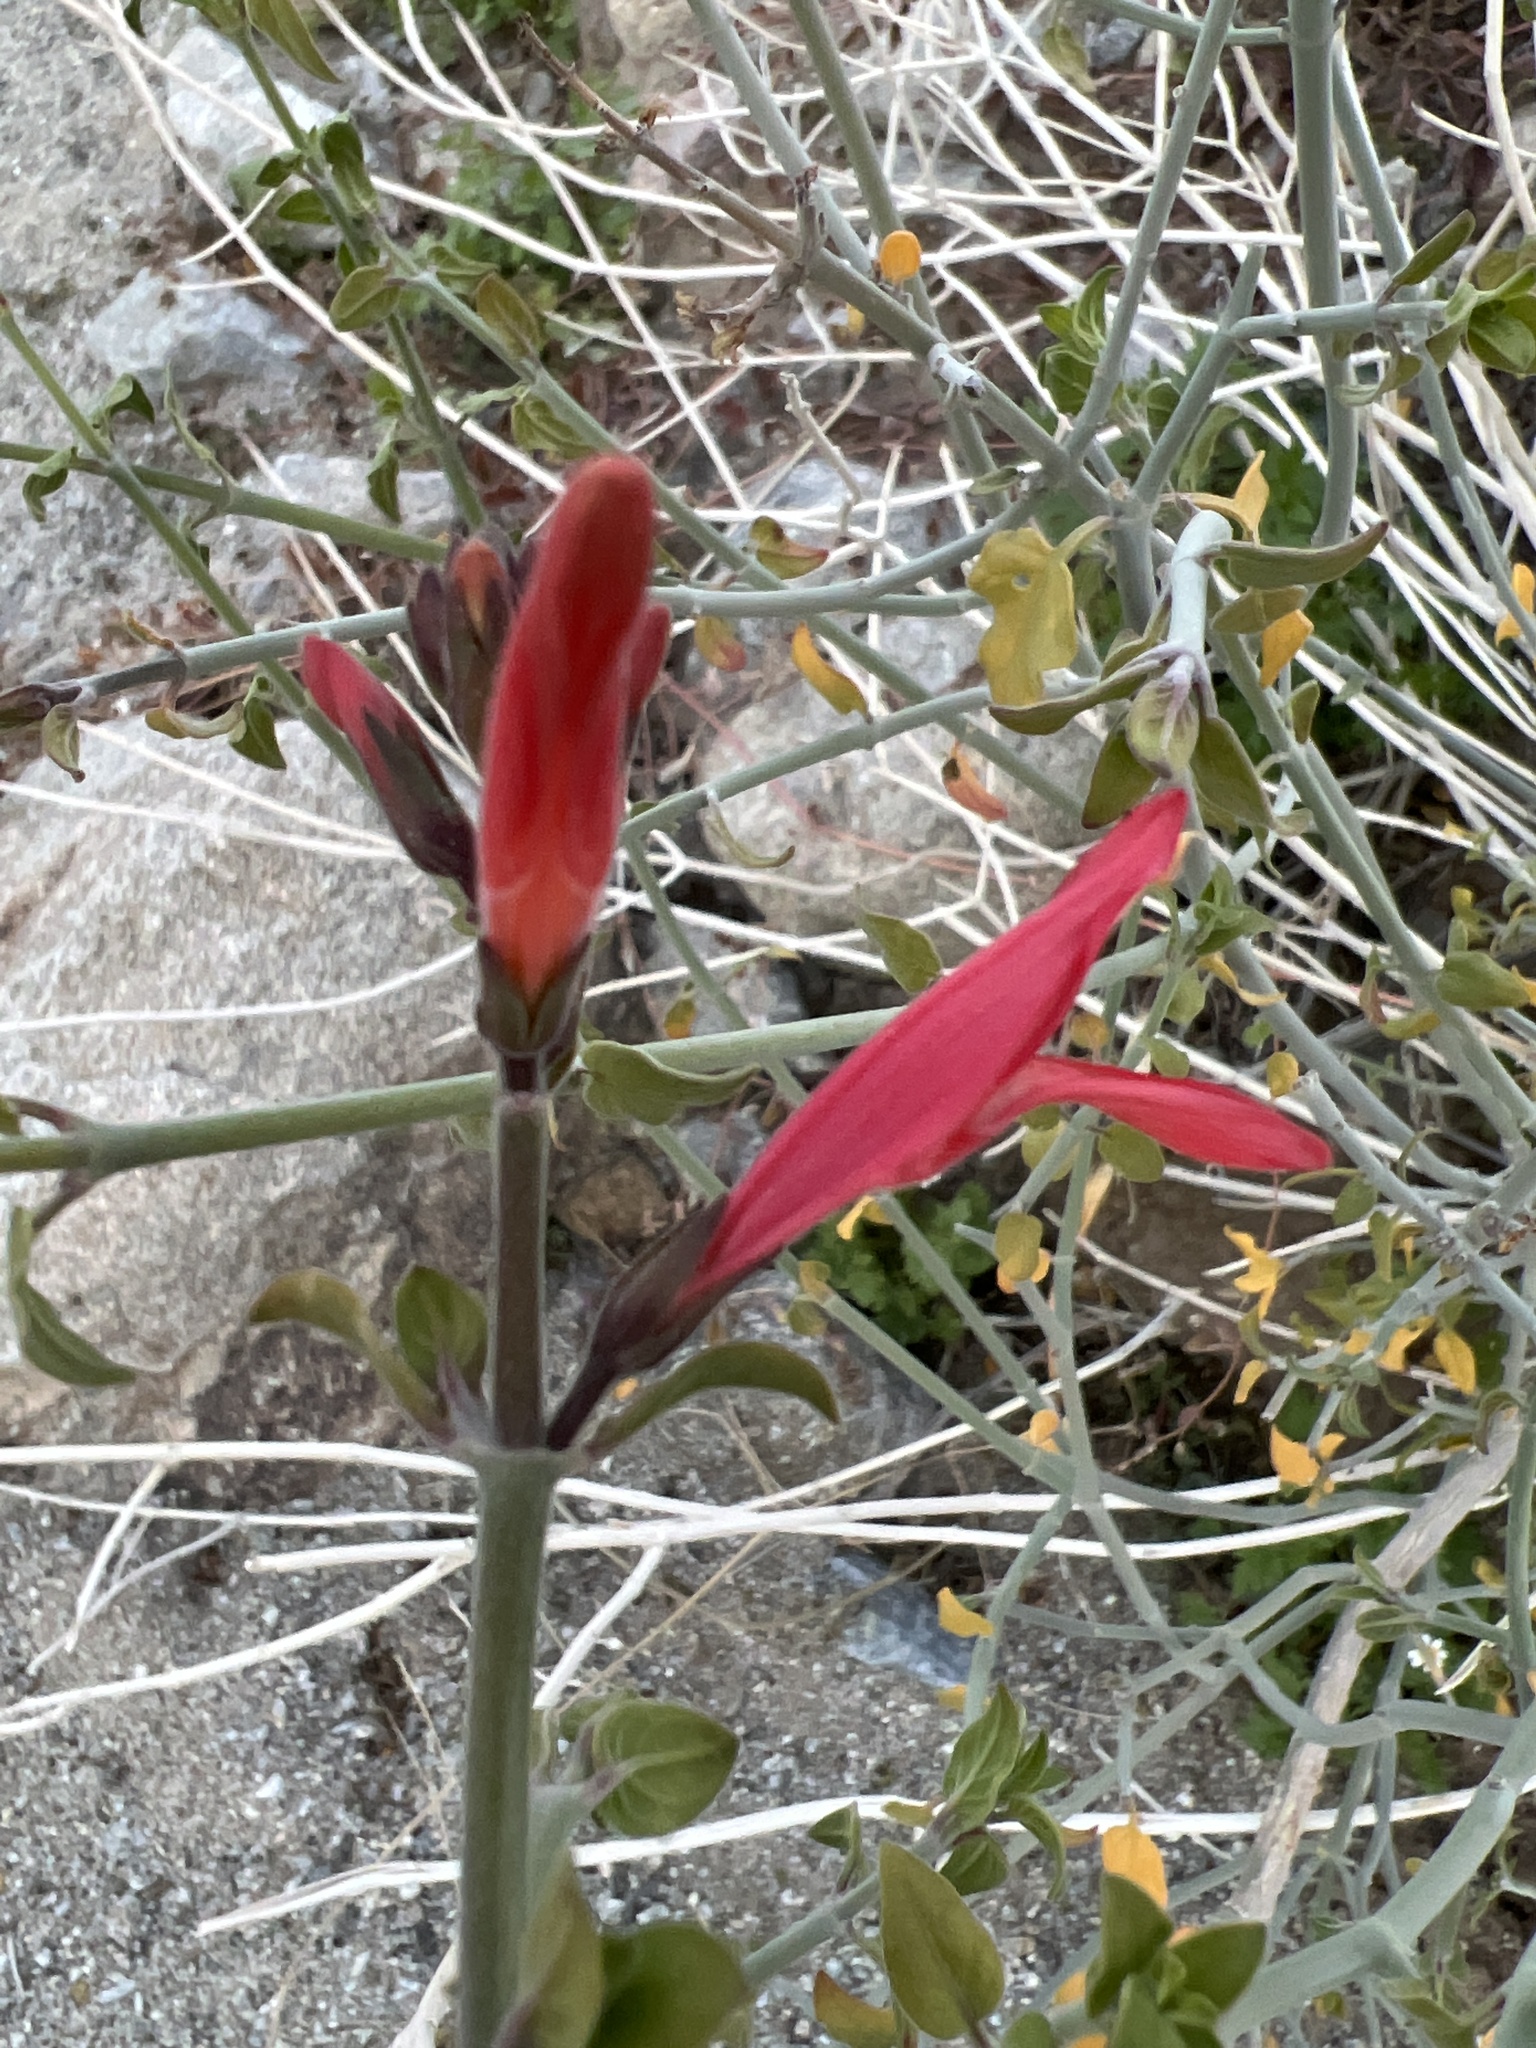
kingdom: Plantae
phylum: Tracheophyta
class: Magnoliopsida
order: Lamiales
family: Acanthaceae
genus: Justicia
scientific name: Justicia californica
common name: Chuparosa-honeysuckle
